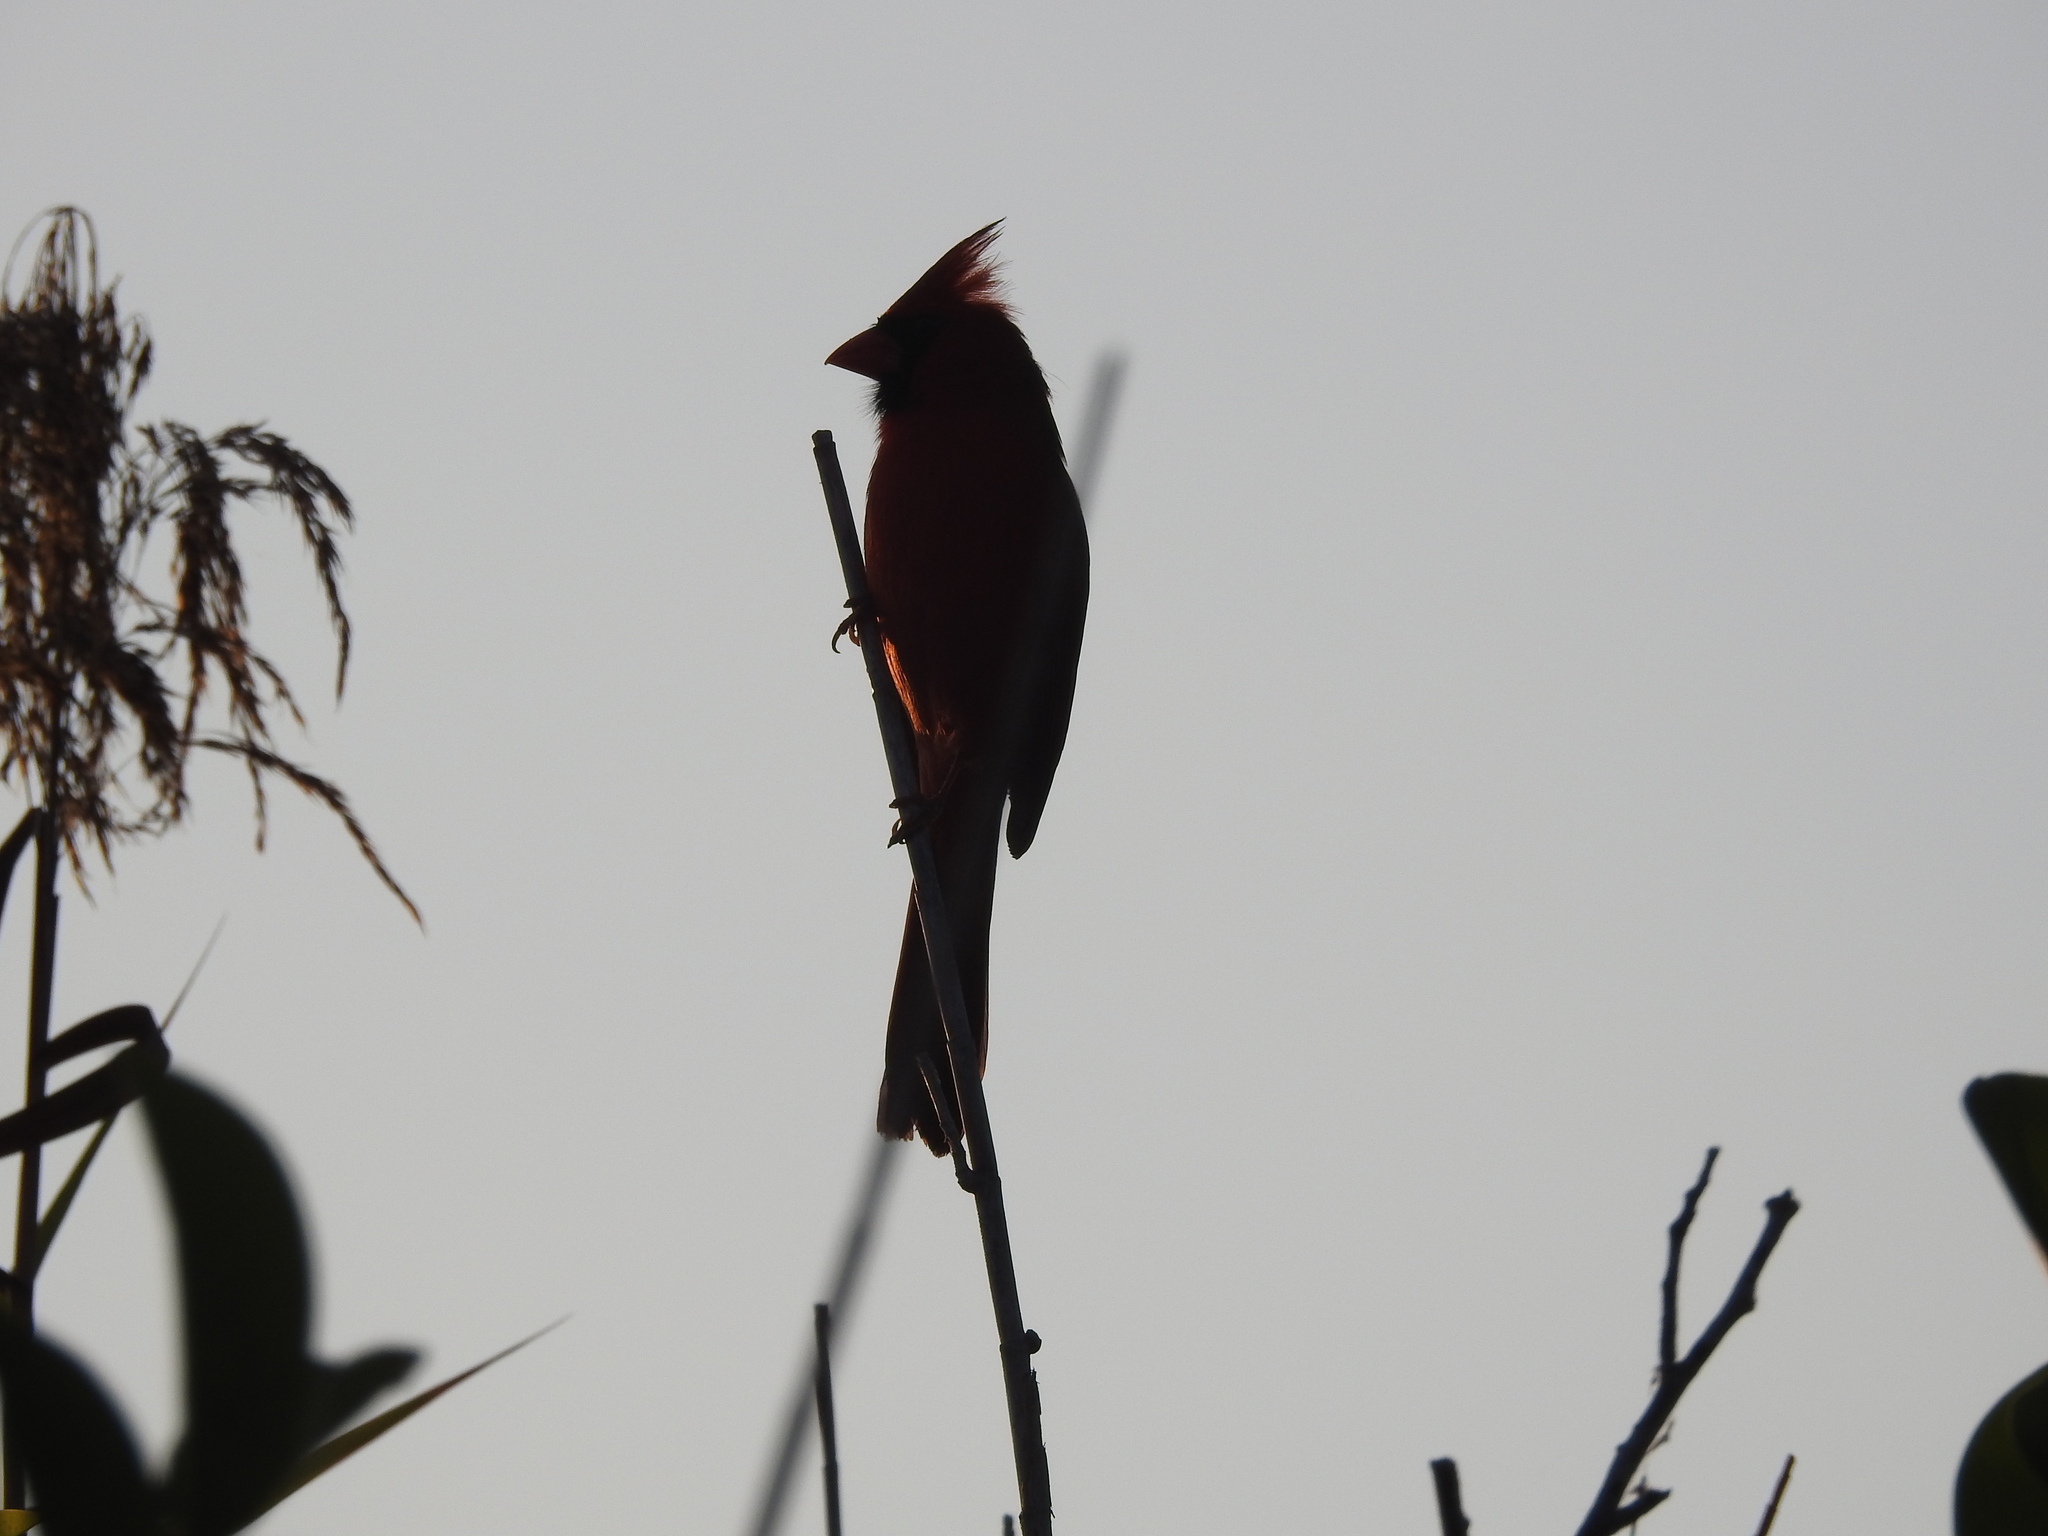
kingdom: Animalia
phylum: Chordata
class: Aves
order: Passeriformes
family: Cardinalidae
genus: Cardinalis
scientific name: Cardinalis cardinalis
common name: Northern cardinal
